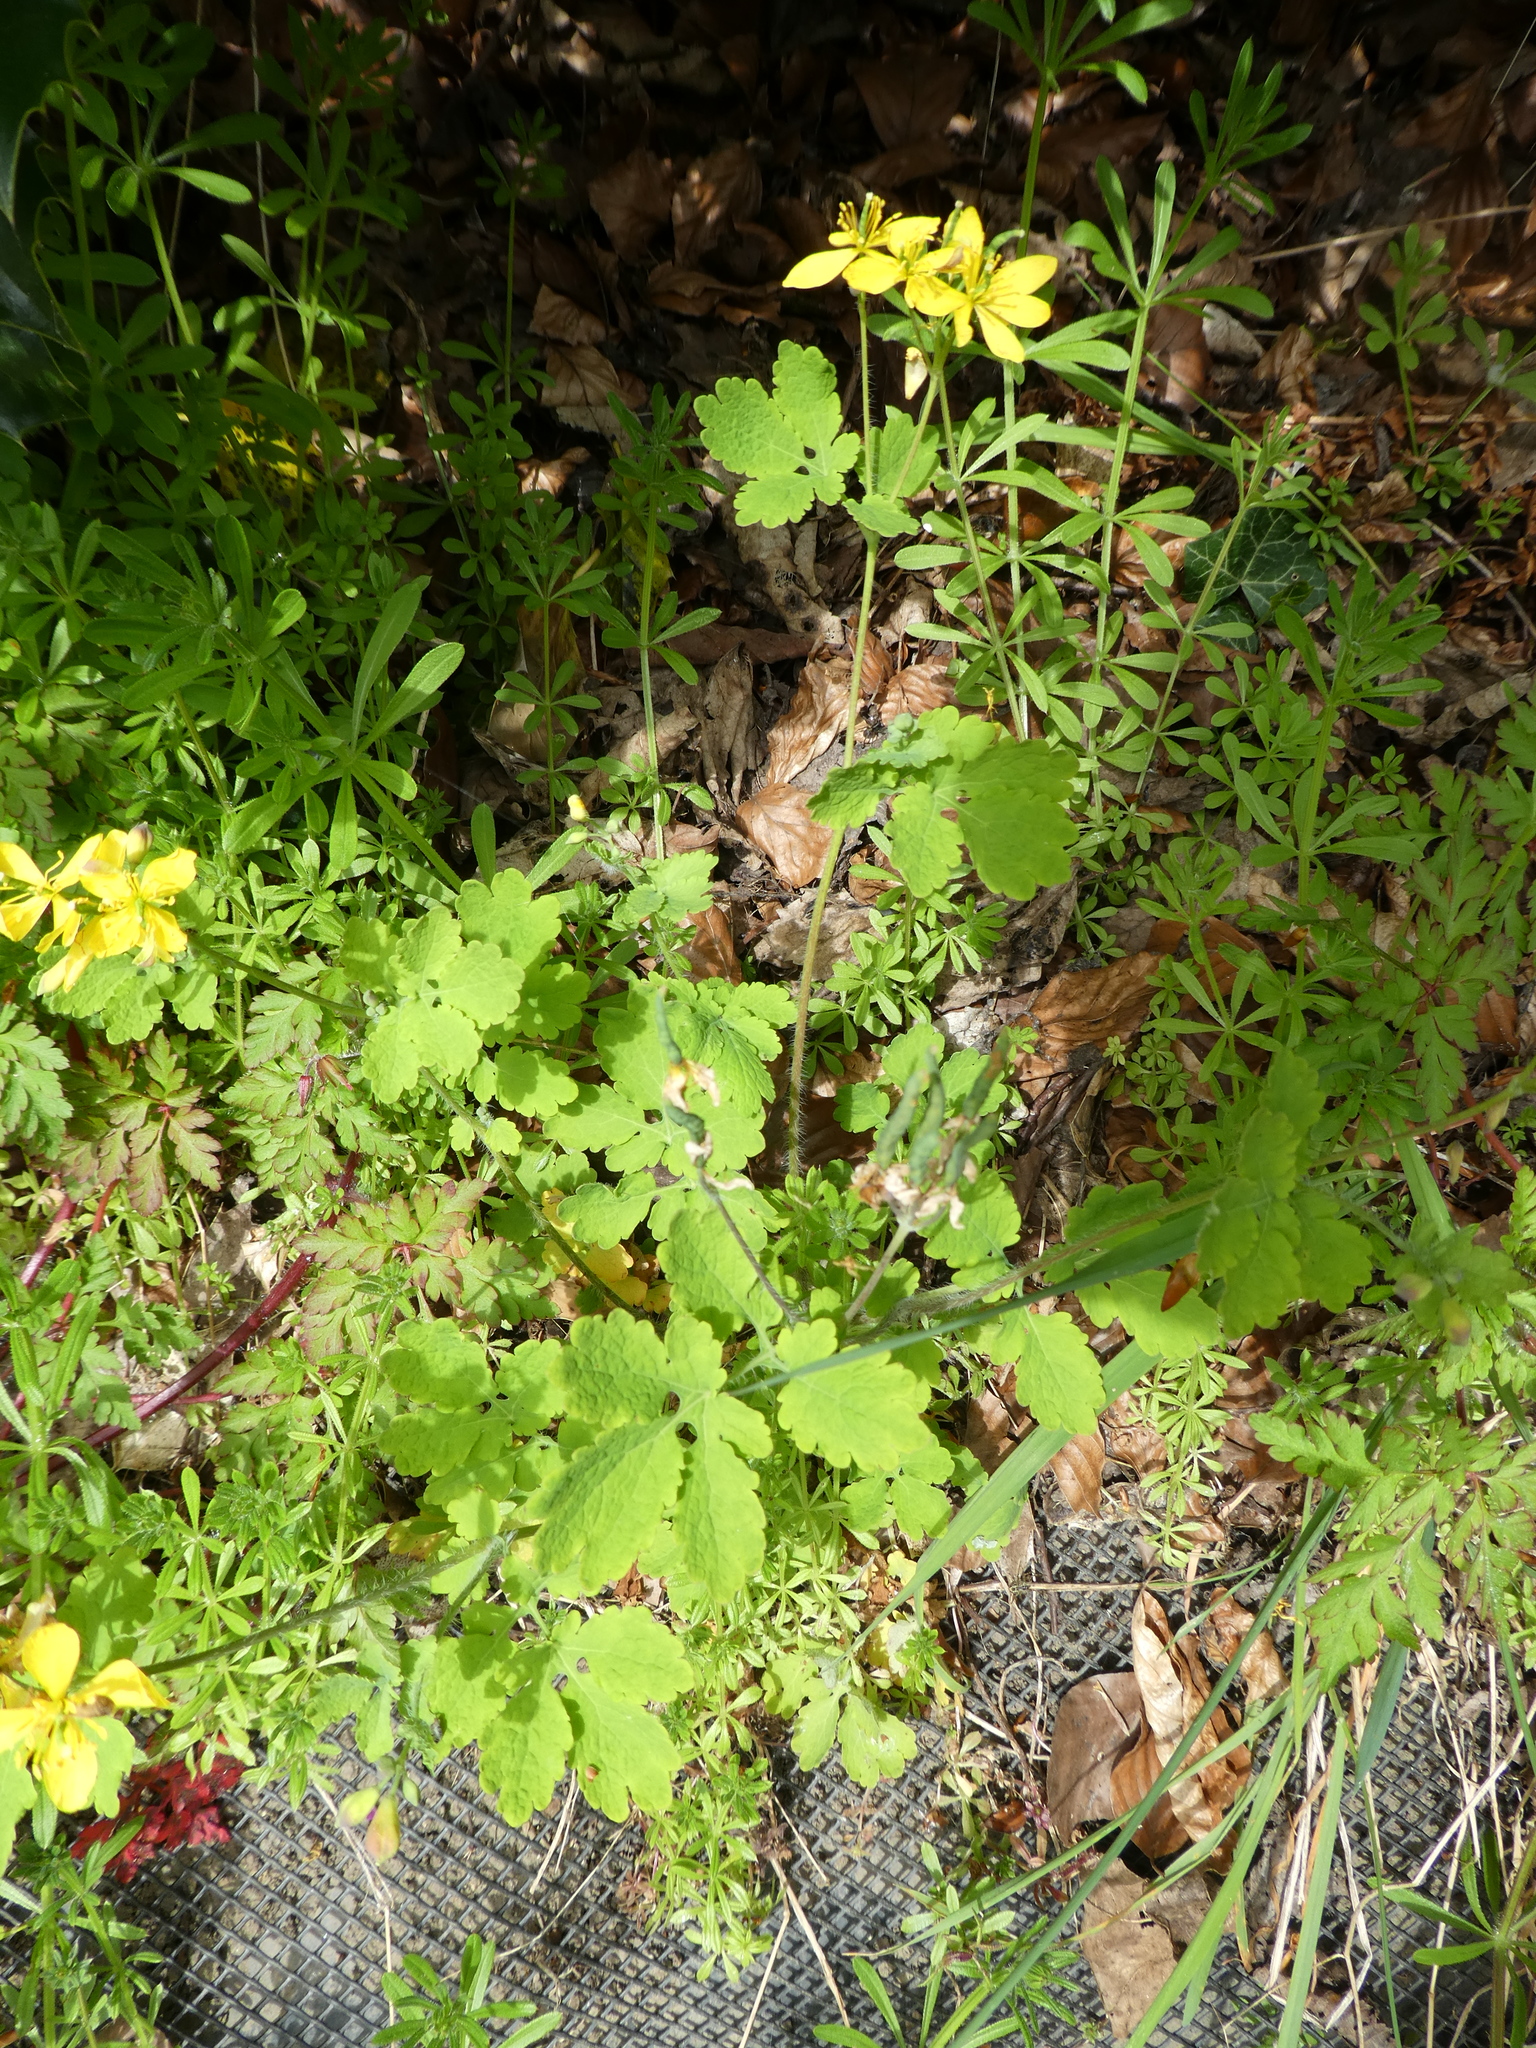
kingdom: Plantae
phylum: Tracheophyta
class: Magnoliopsida
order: Ranunculales
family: Papaveraceae
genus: Chelidonium
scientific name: Chelidonium majus
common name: Greater celandine
